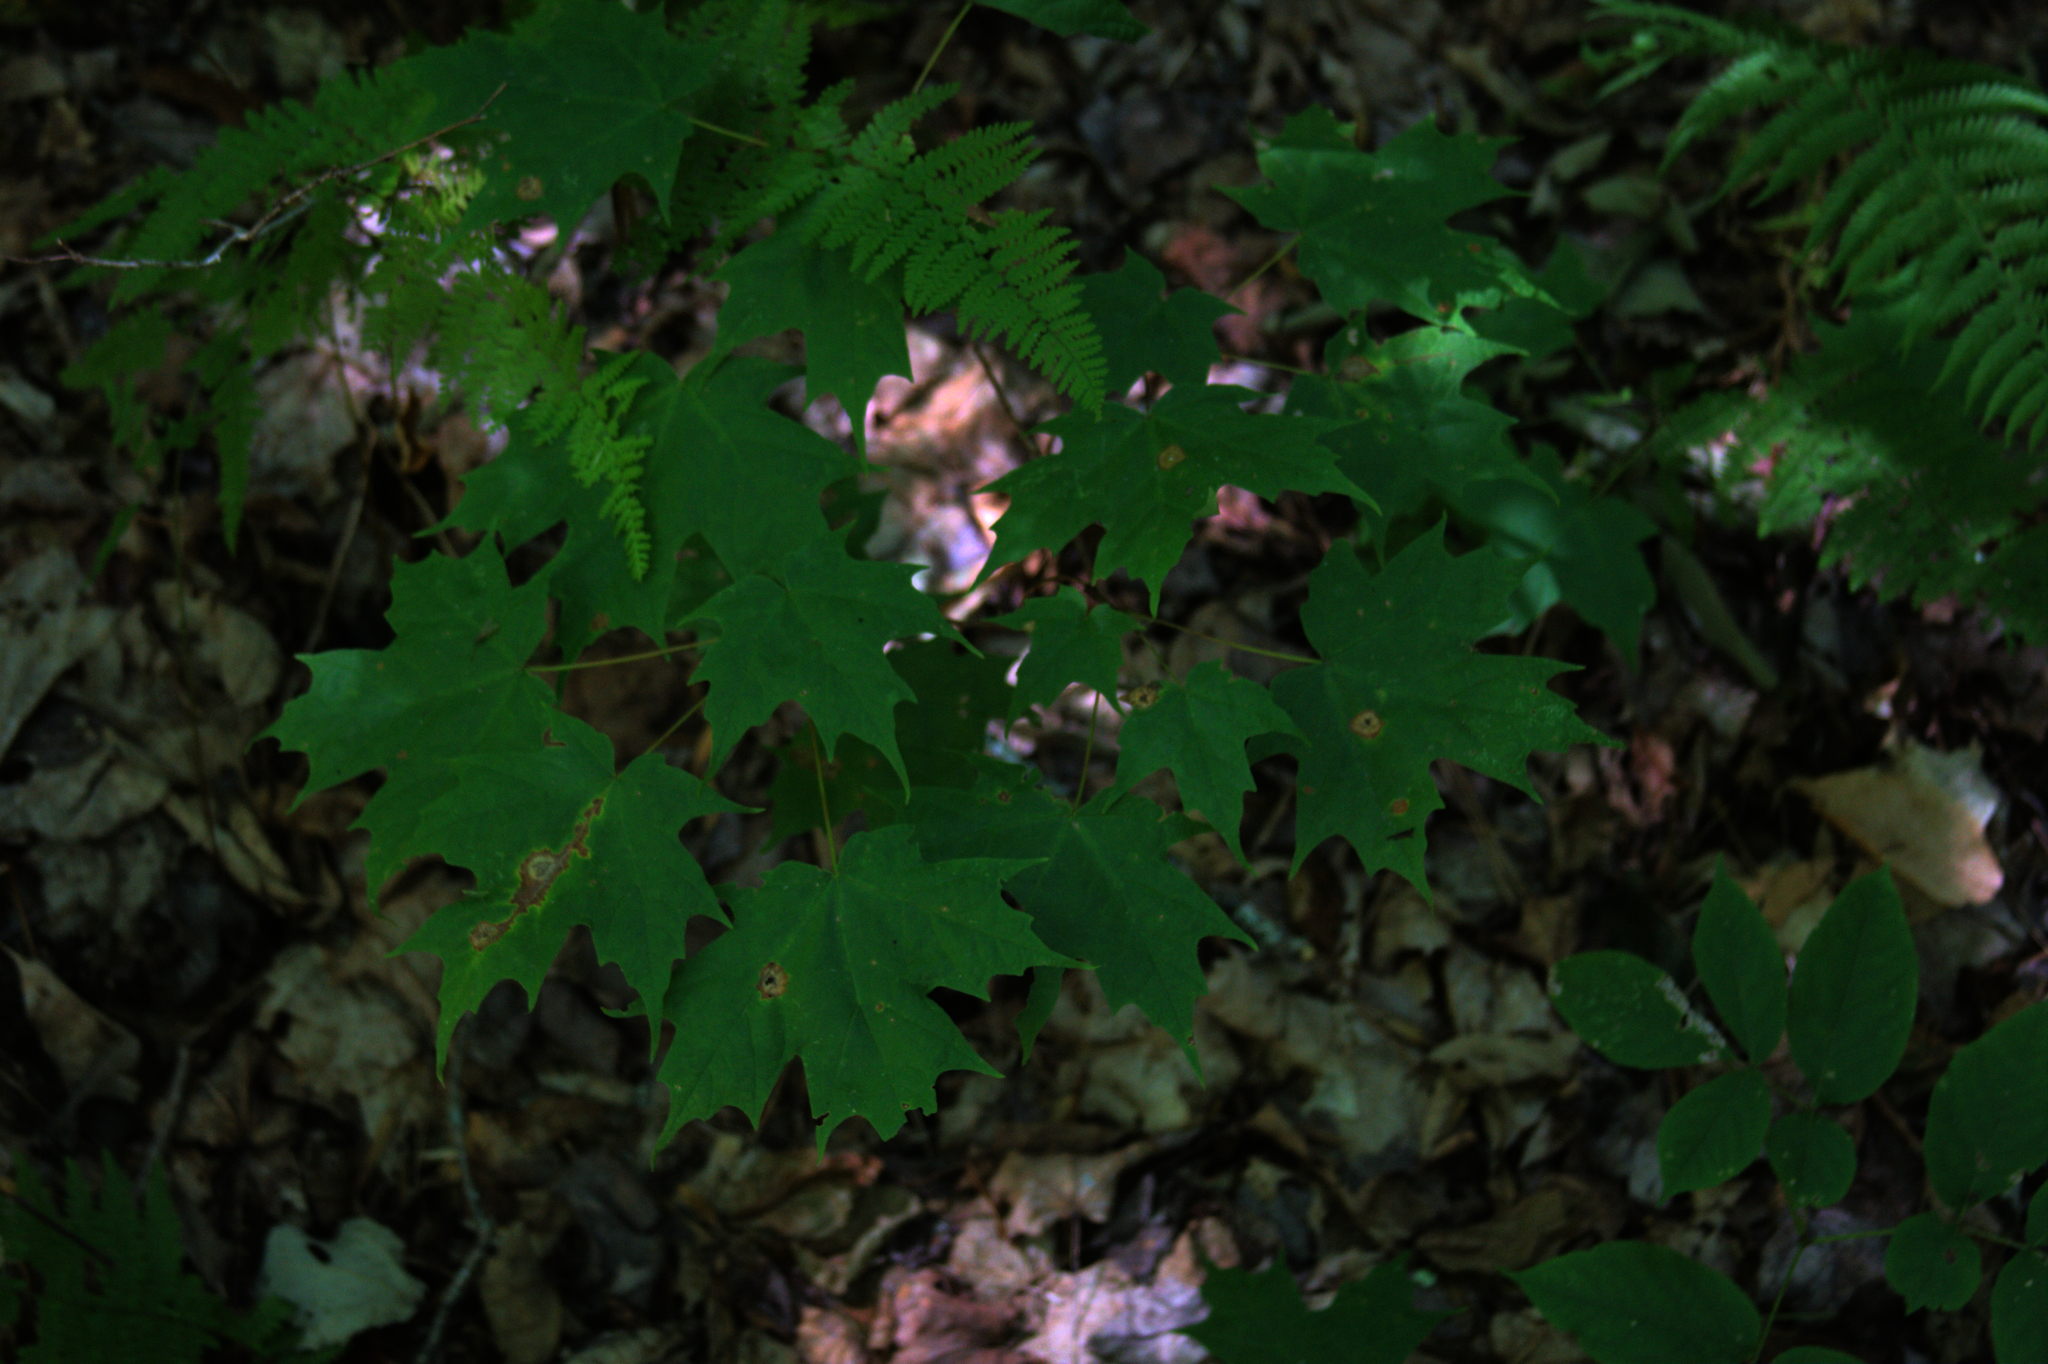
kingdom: Plantae
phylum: Tracheophyta
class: Magnoliopsida
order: Sapindales
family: Sapindaceae
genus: Acer
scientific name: Acer saccharum
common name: Sugar maple
